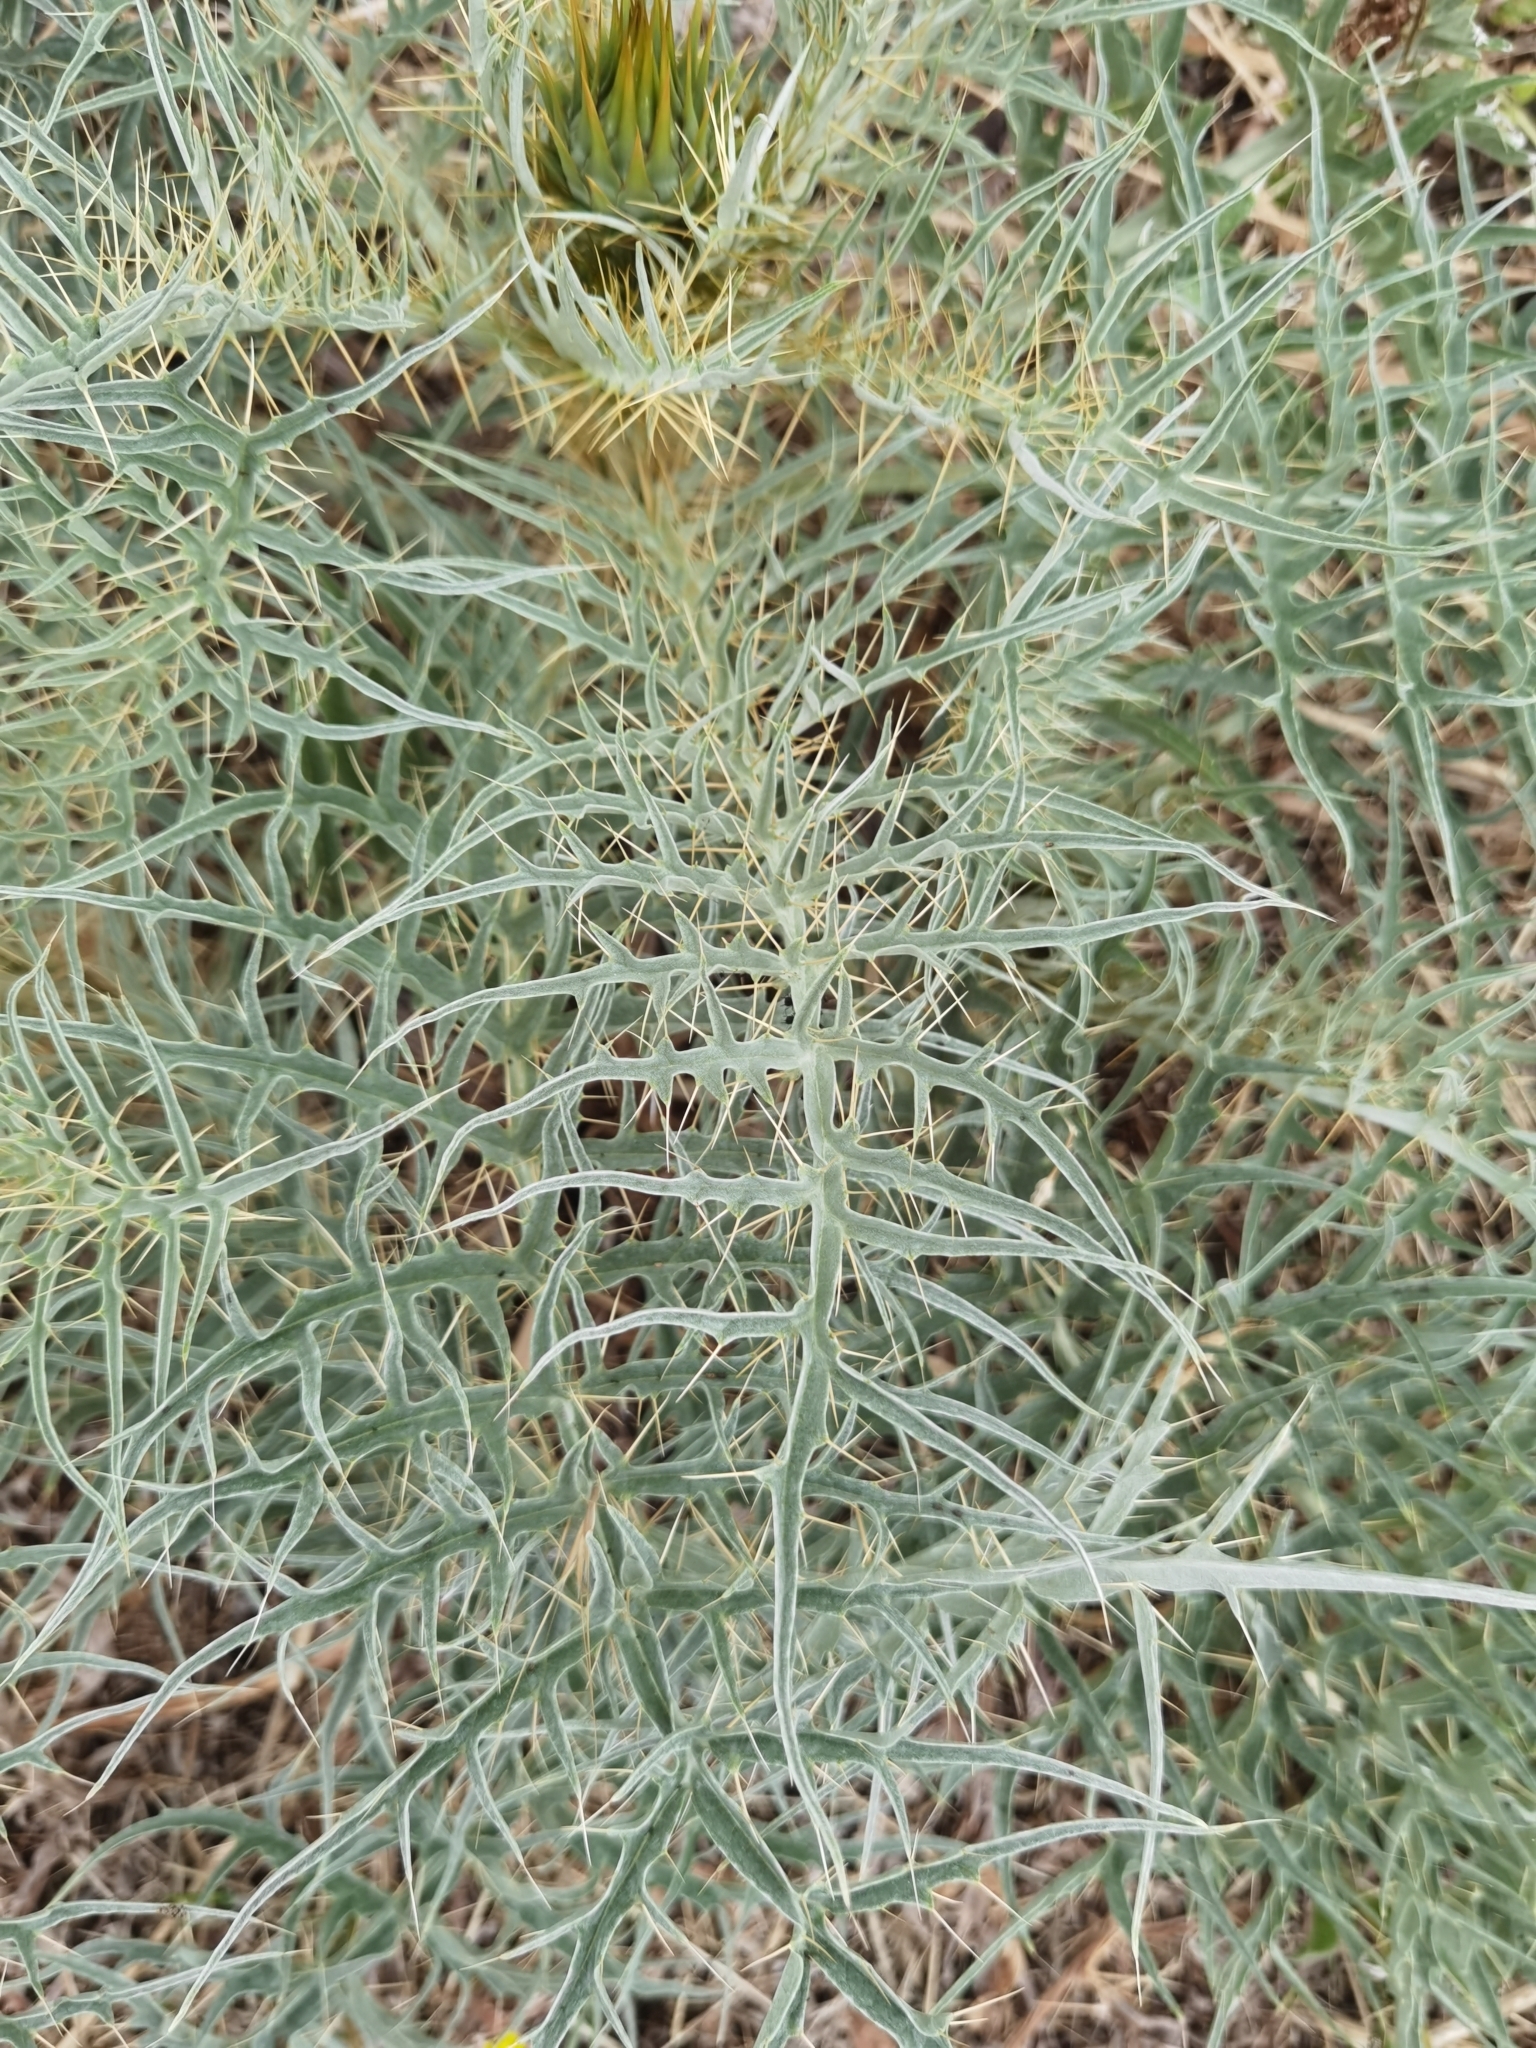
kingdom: Plantae
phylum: Tracheophyta
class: Magnoliopsida
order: Asterales
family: Asteraceae
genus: Cynara
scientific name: Cynara cardunculus
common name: Globe artichoke
